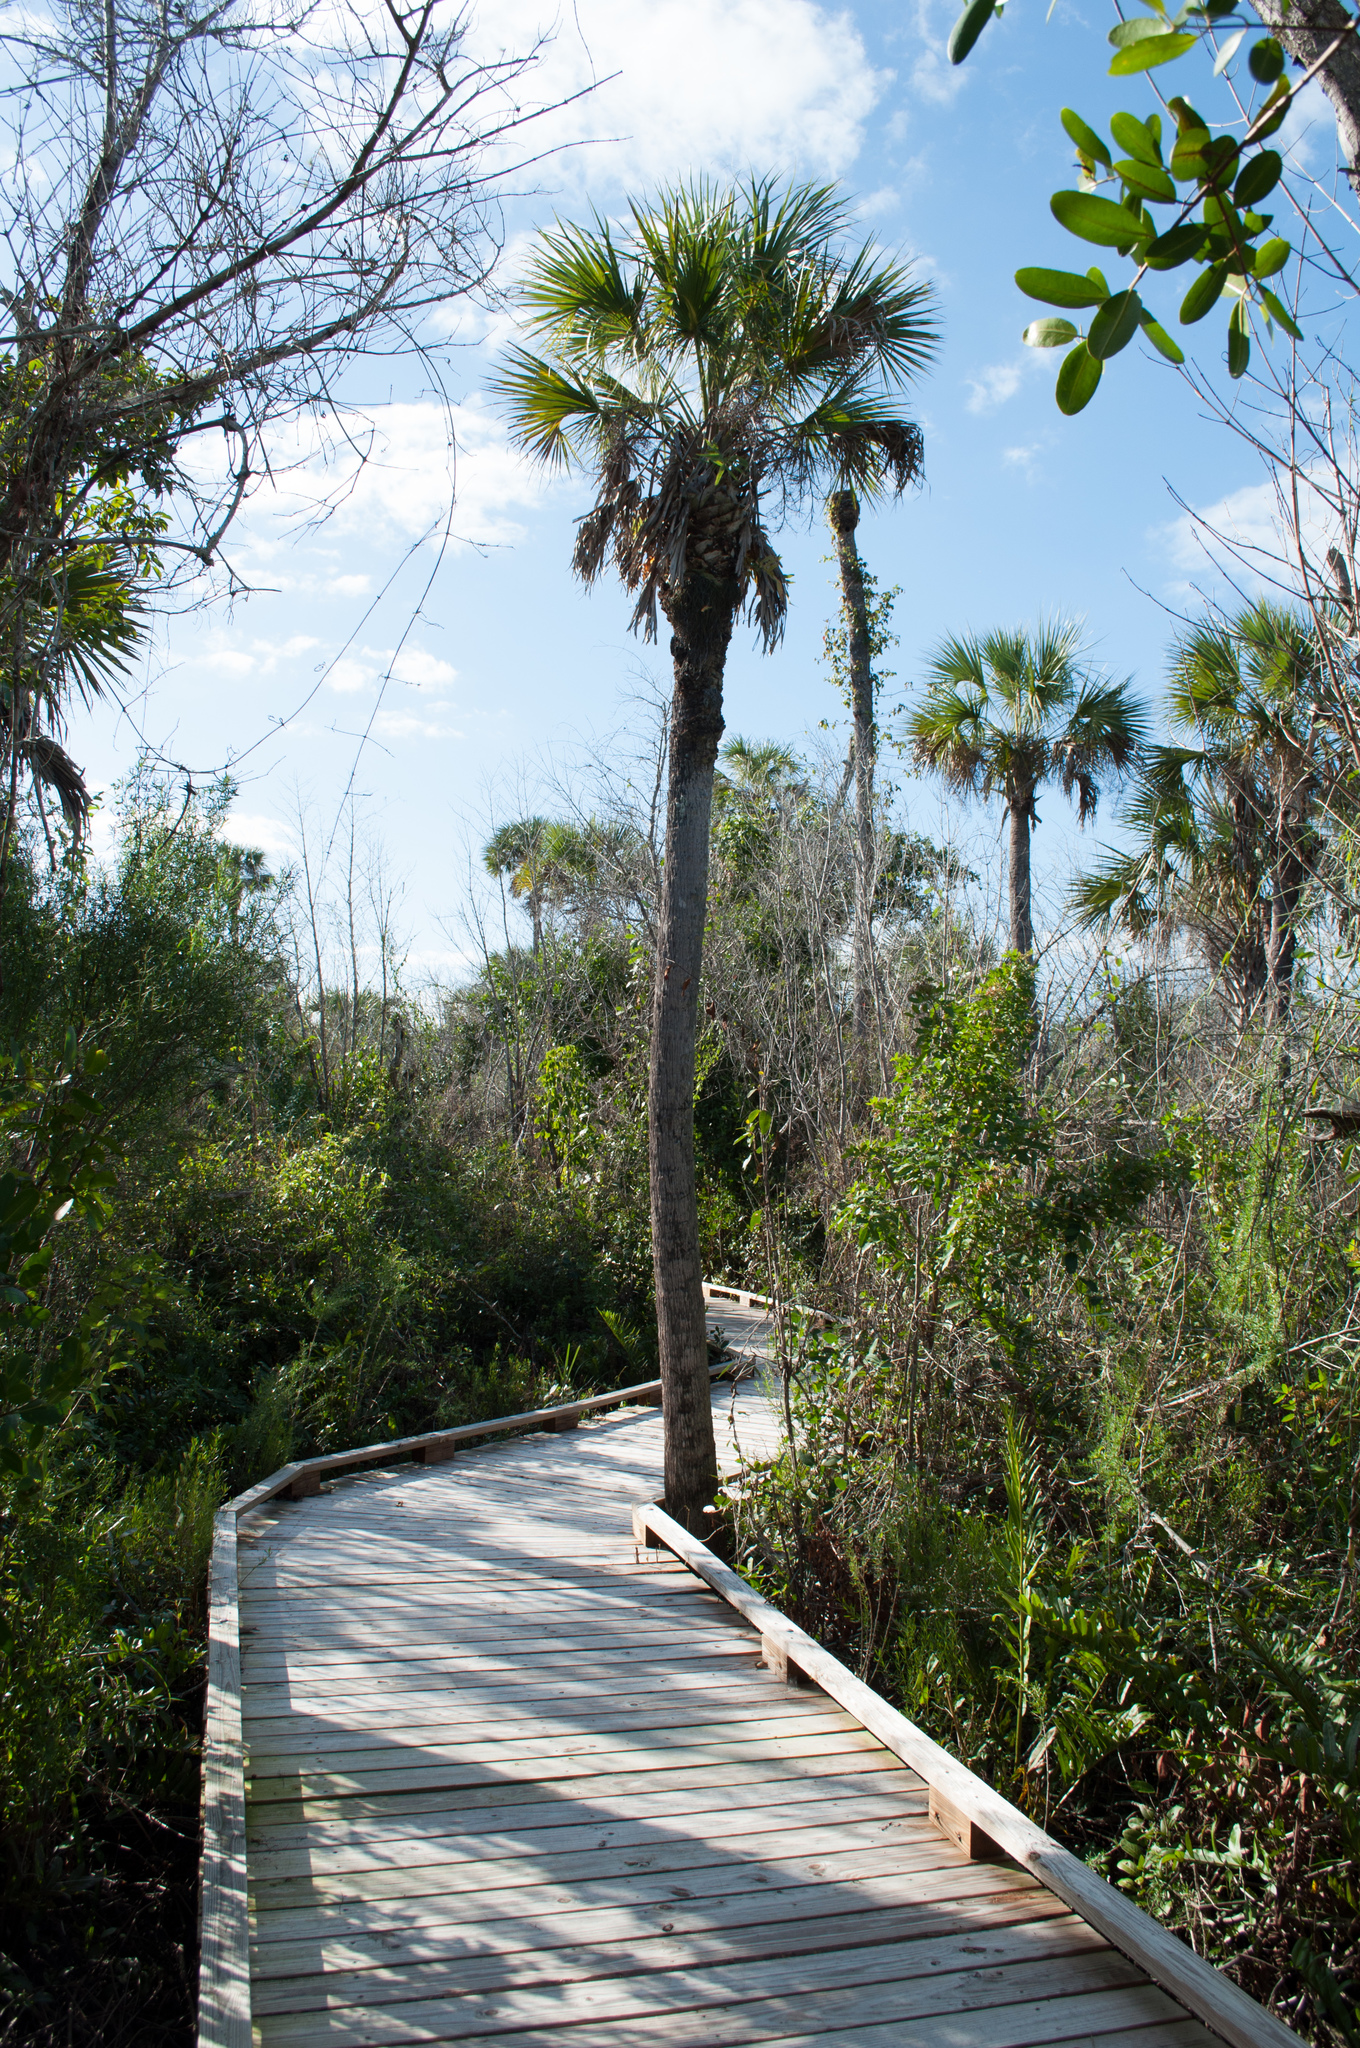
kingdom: Plantae
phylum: Tracheophyta
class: Liliopsida
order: Arecales
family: Arecaceae
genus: Sabal
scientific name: Sabal palmetto
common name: Blue palmetto
